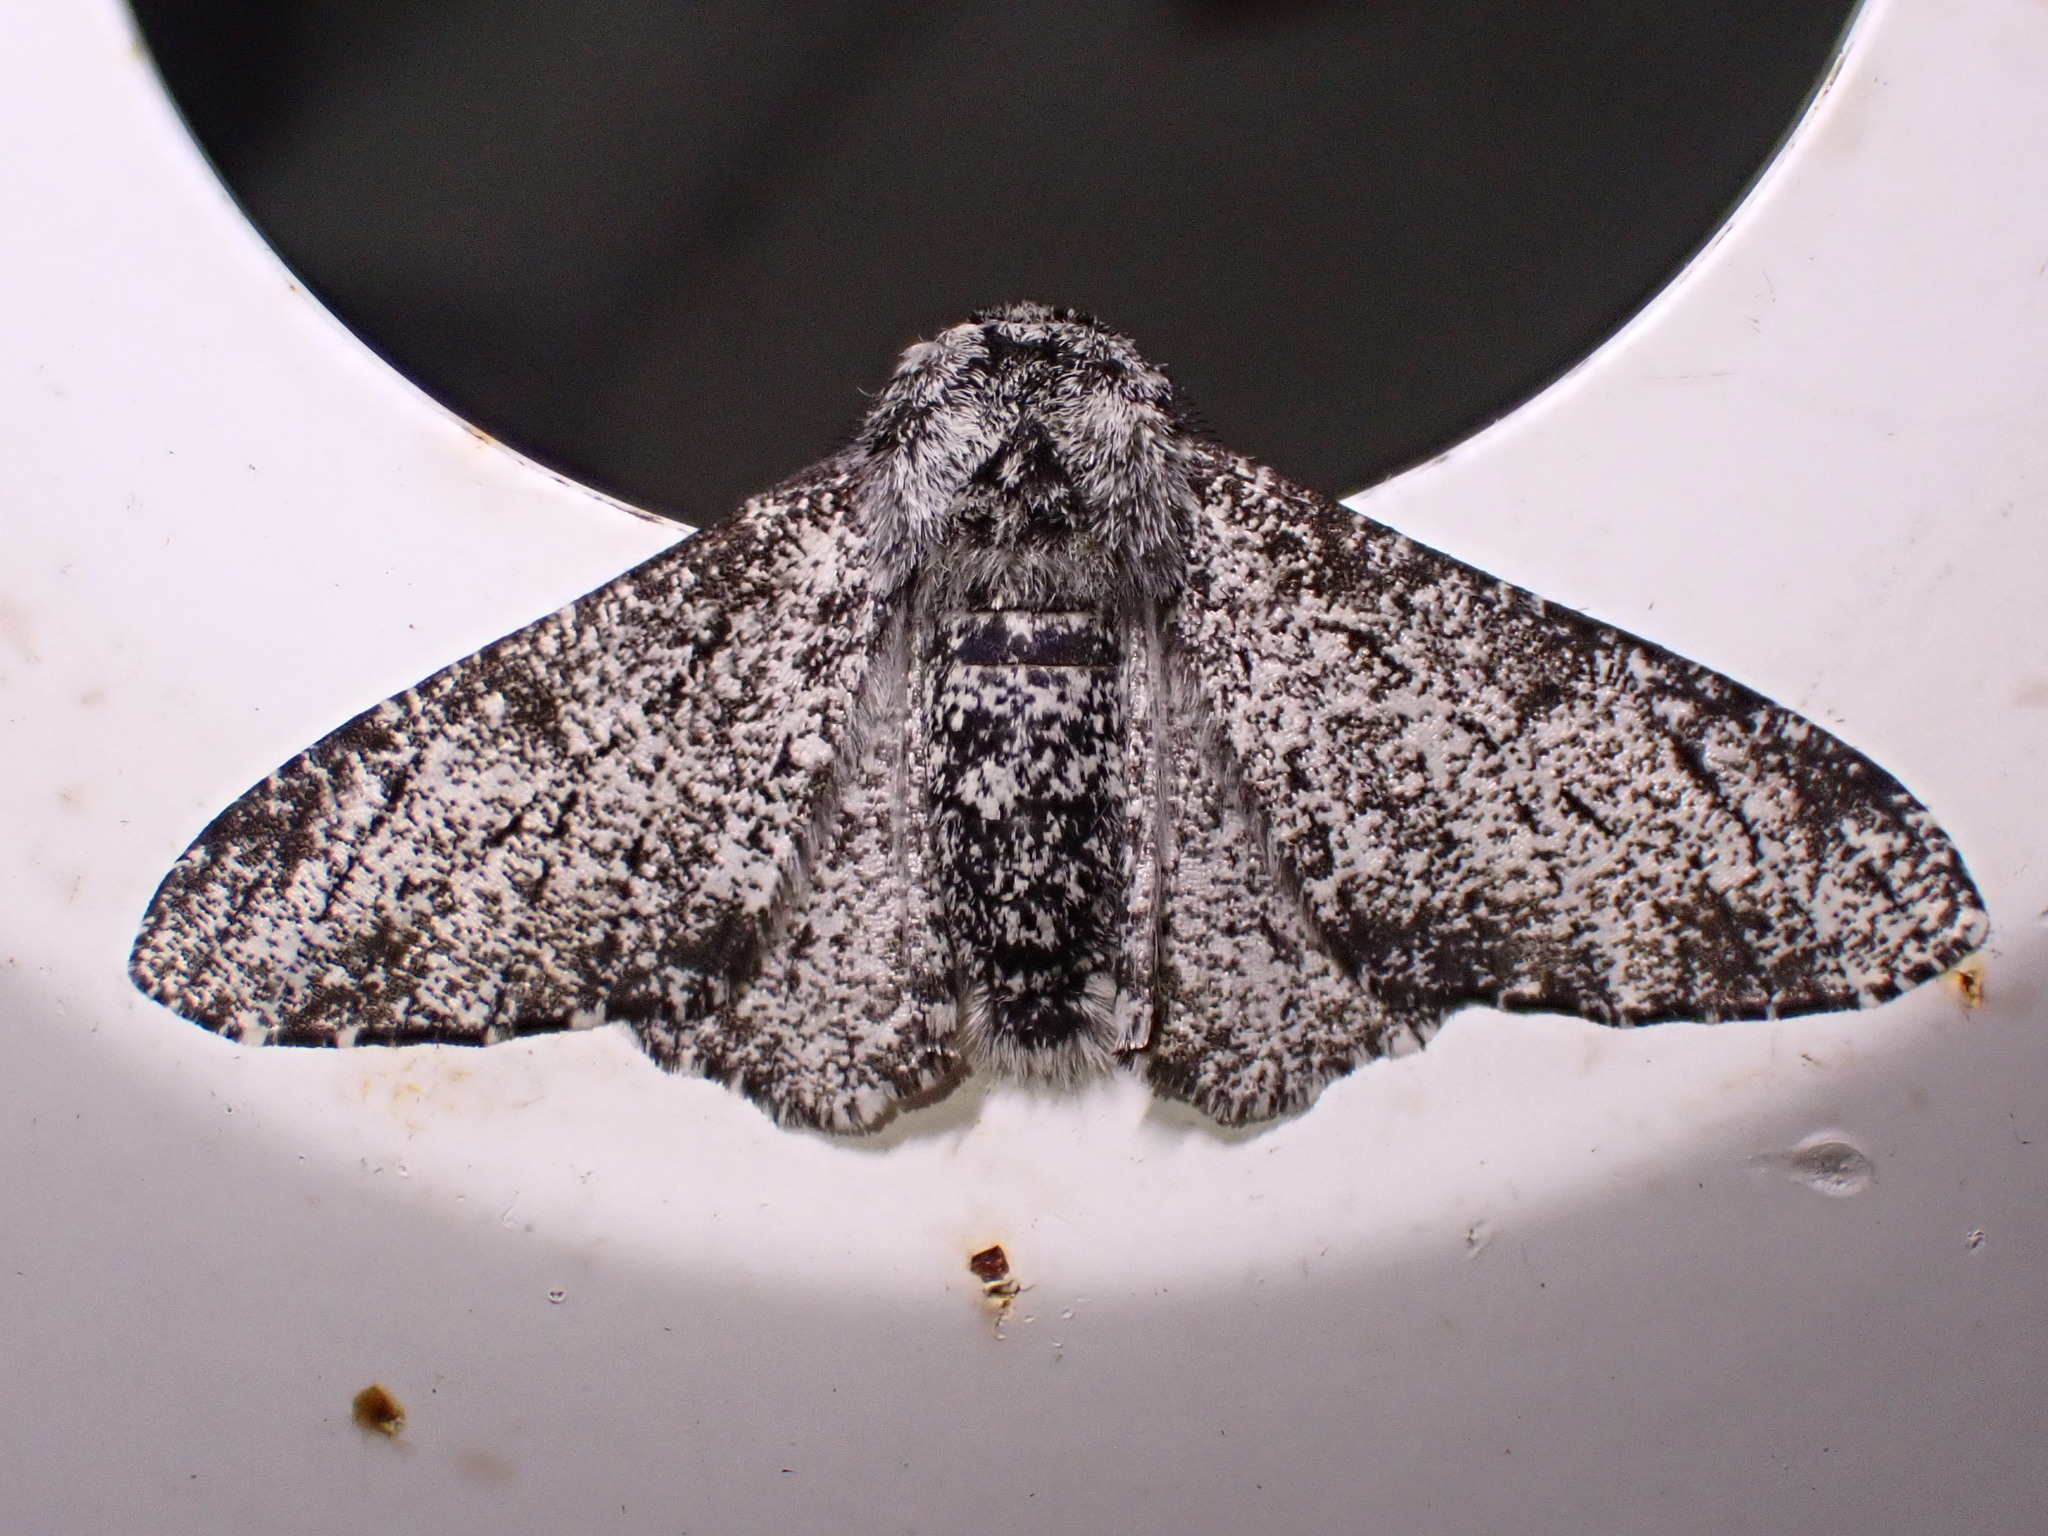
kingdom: Animalia
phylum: Arthropoda
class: Insecta
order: Lepidoptera
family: Geometridae
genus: Biston
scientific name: Biston betularia
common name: Peppered moth
